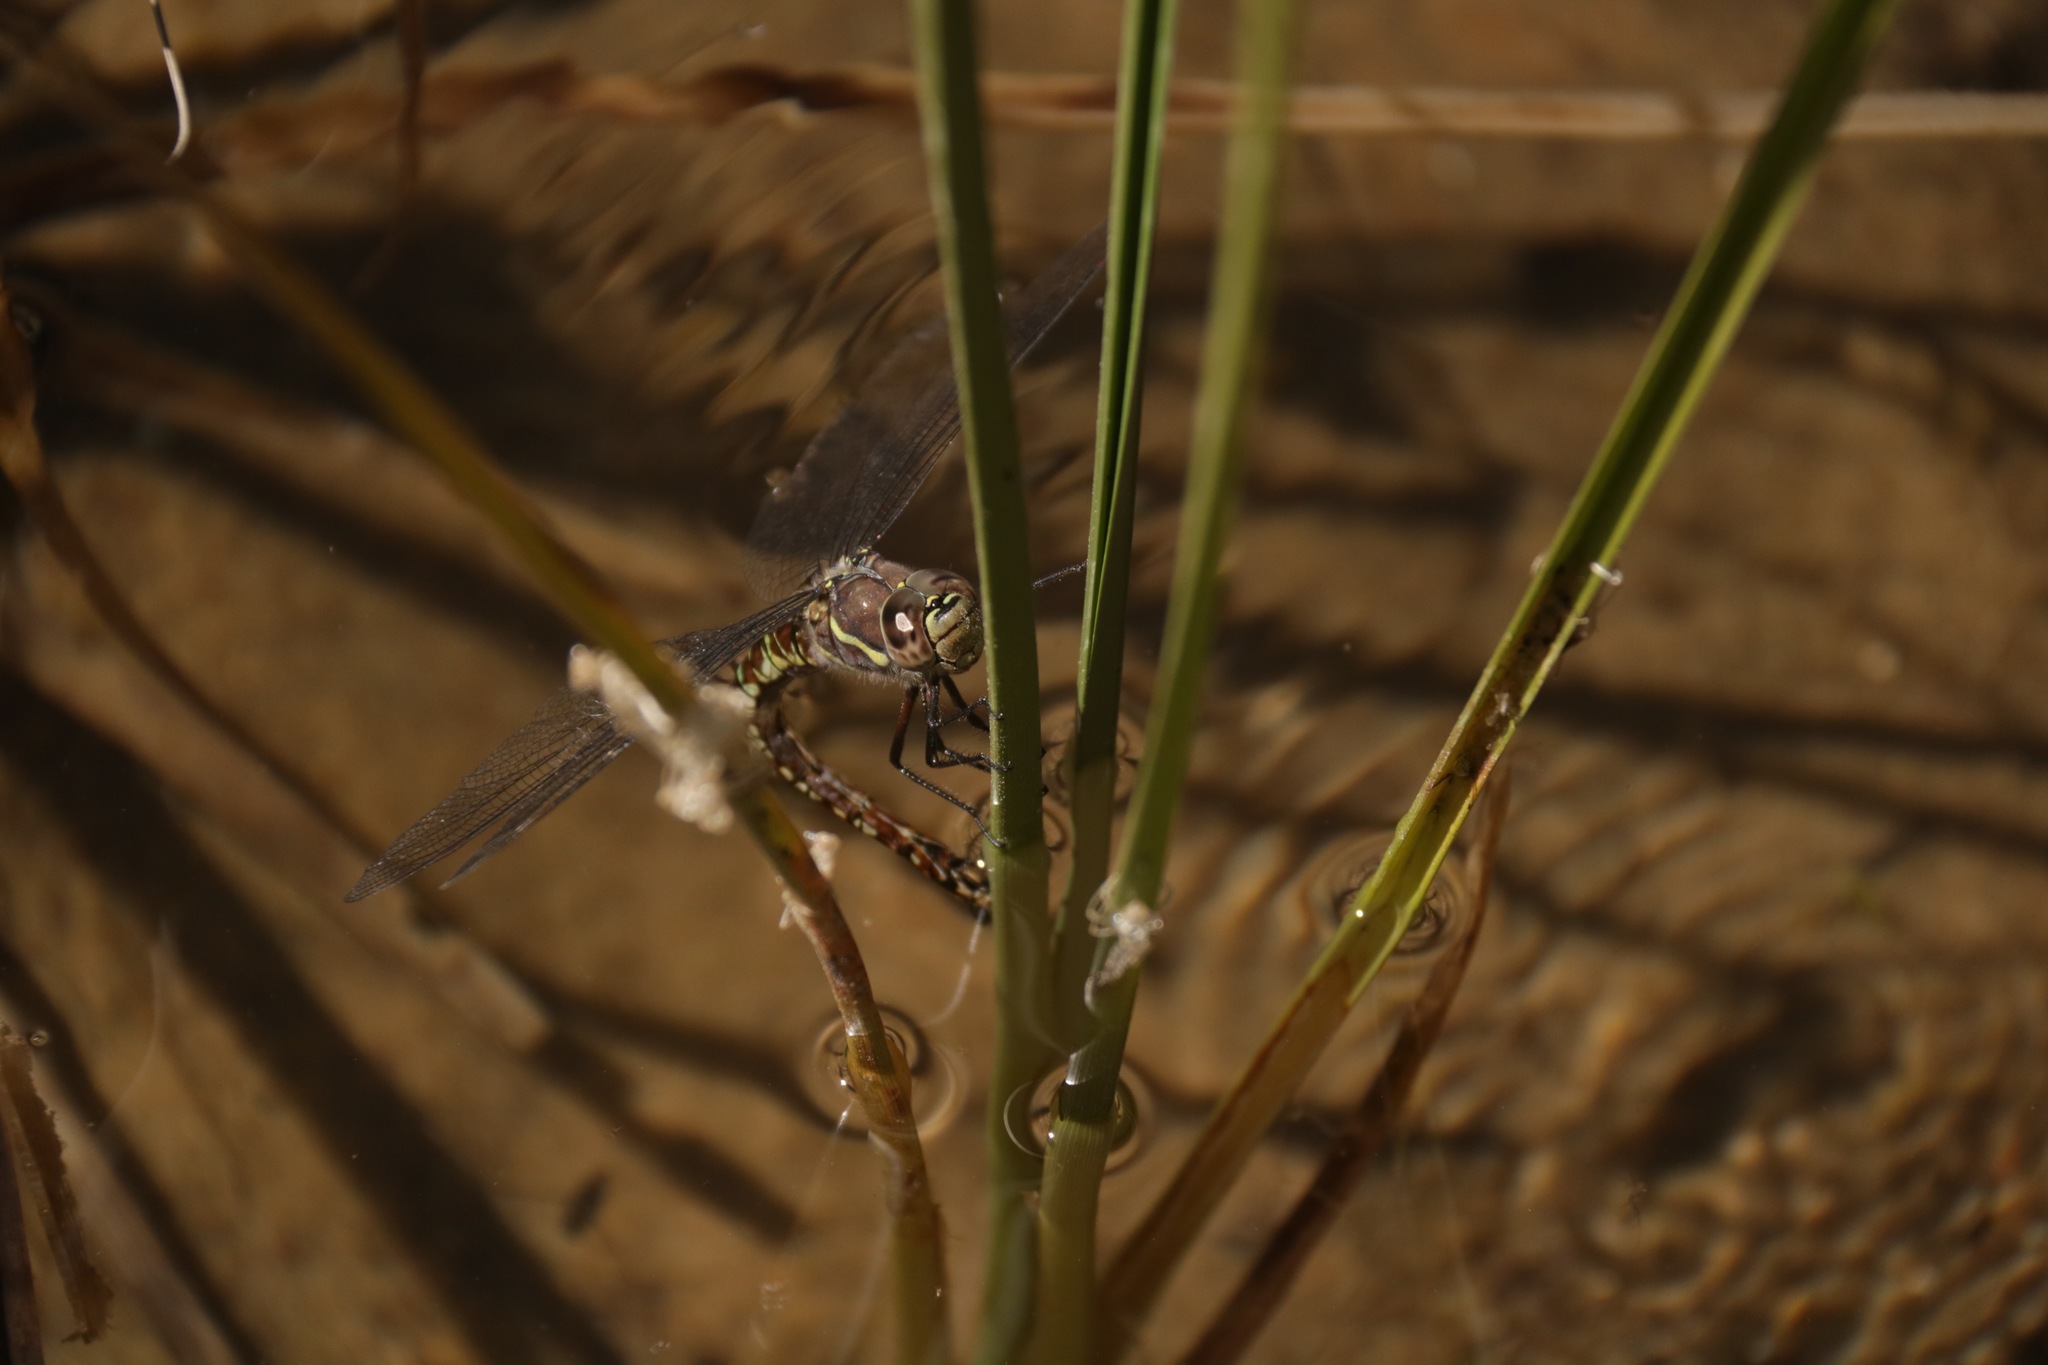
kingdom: Animalia
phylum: Arthropoda
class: Insecta
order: Odonata
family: Aeshnidae
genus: Aeshna
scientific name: Aeshna palmata
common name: Paddle-tailed darner
